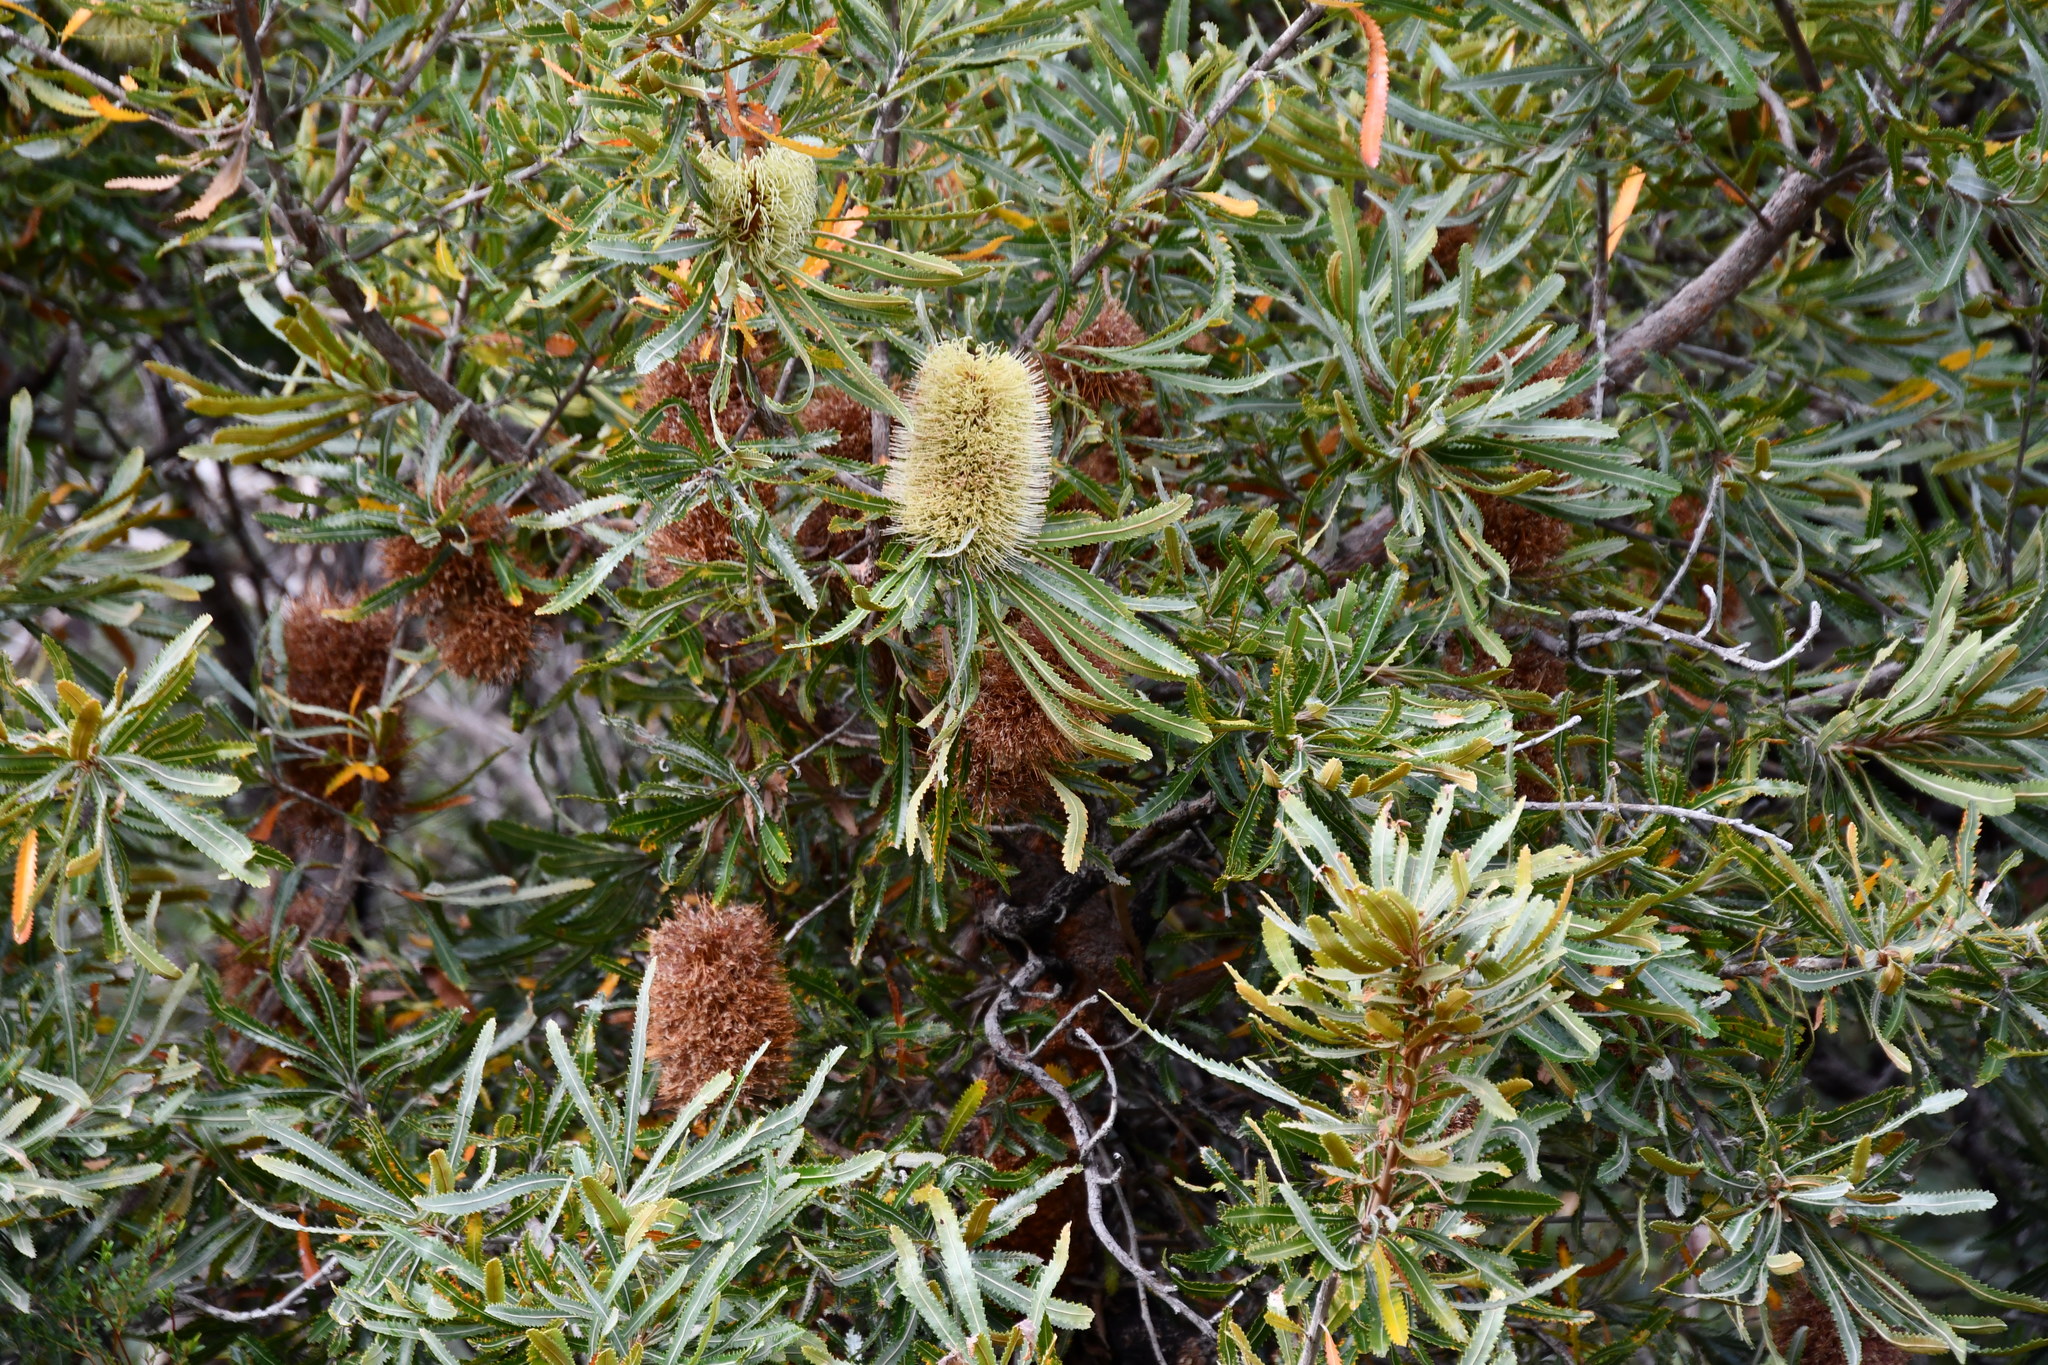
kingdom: Plantae
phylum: Tracheophyta
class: Magnoliopsida
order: Proteales
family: Proteaceae
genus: Banksia
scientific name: Banksia aemula
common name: Wallum banksia
